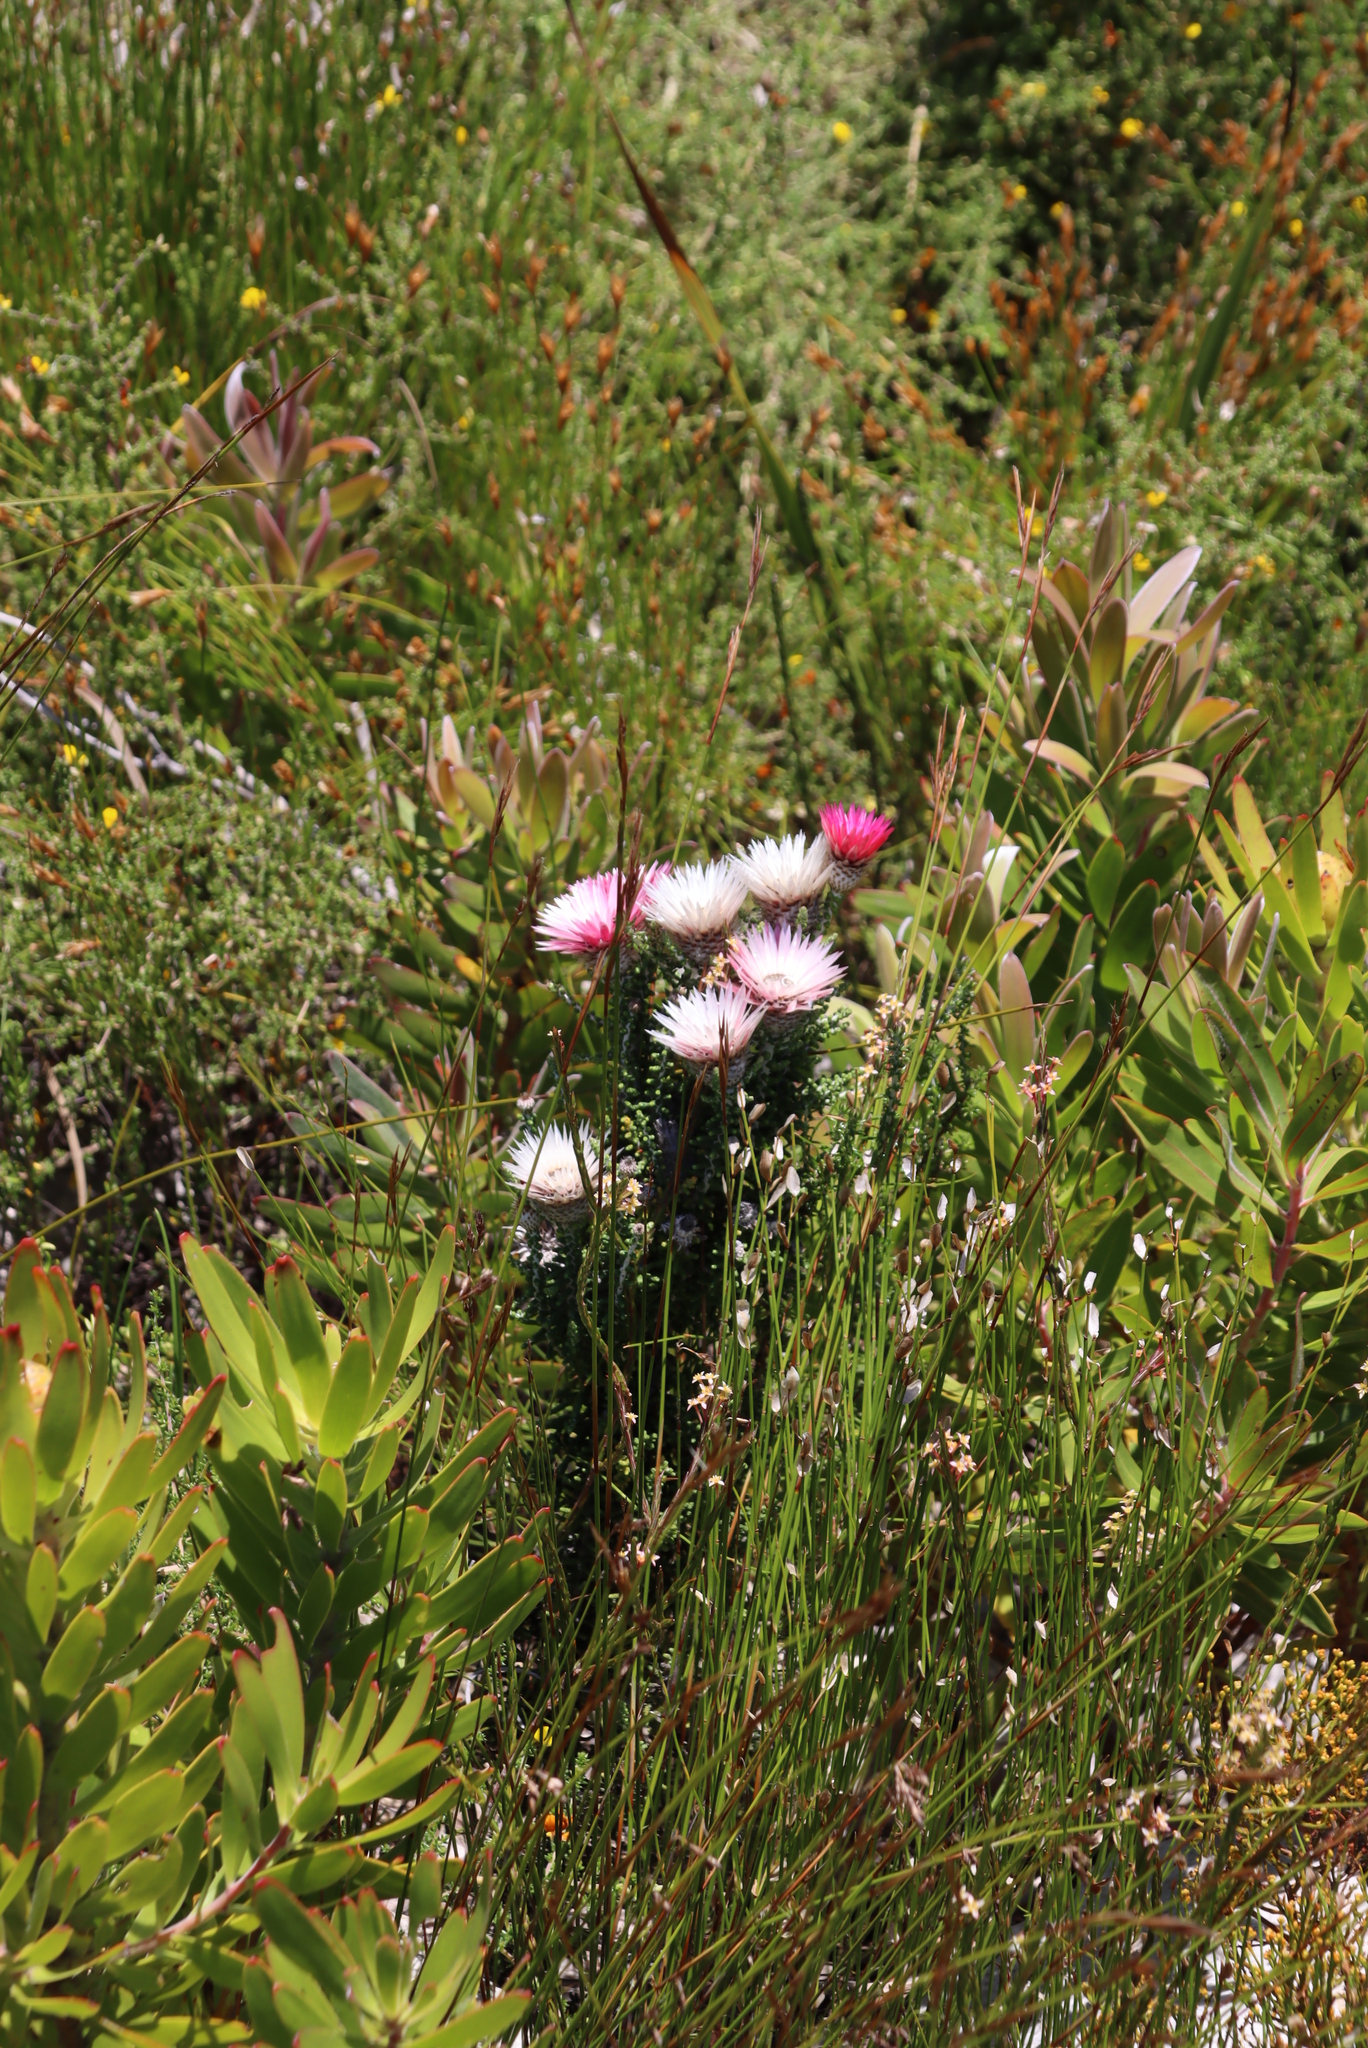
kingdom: Plantae
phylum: Tracheophyta
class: Magnoliopsida
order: Asterales
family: Asteraceae
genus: Phaenocoma
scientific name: Phaenocoma prolifera
